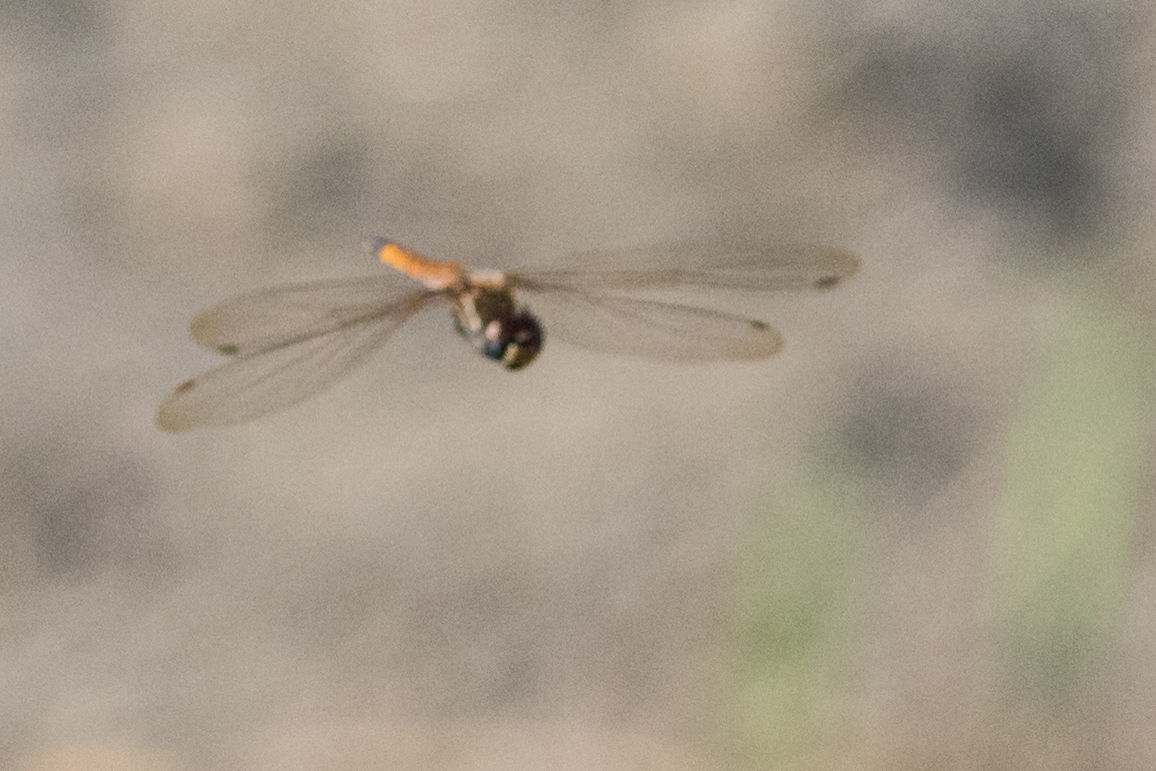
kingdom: Animalia
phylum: Arthropoda
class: Insecta
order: Odonata
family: Libellulidae
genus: Tramea
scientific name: Tramea darwini
